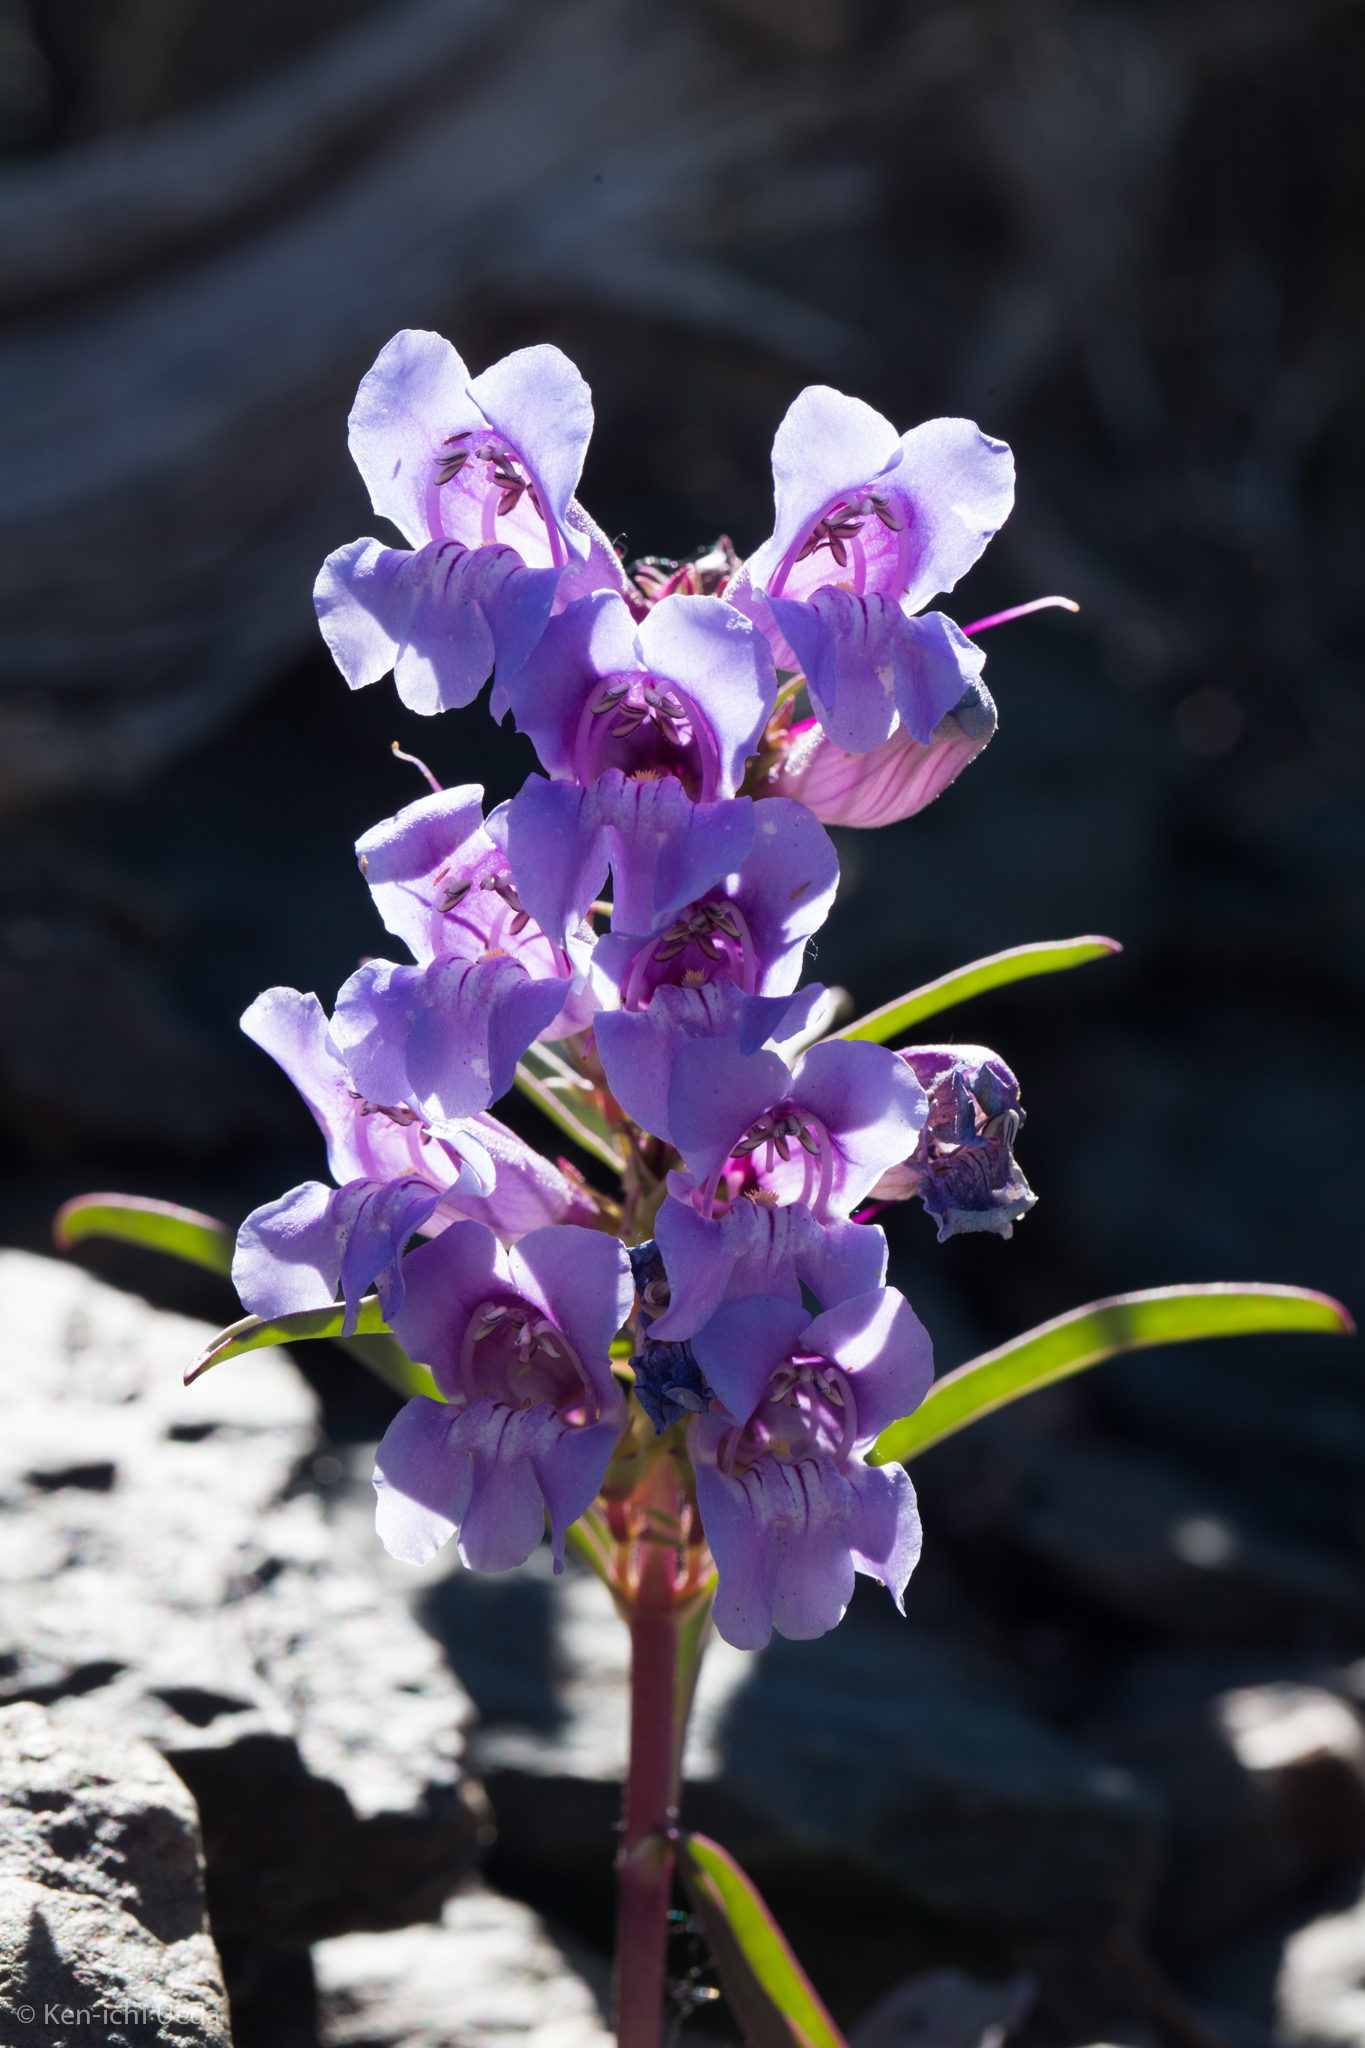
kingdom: Plantae
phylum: Tracheophyta
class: Magnoliopsida
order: Lamiales
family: Plantaginaceae
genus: Penstemon
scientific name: Penstemon speciosus
